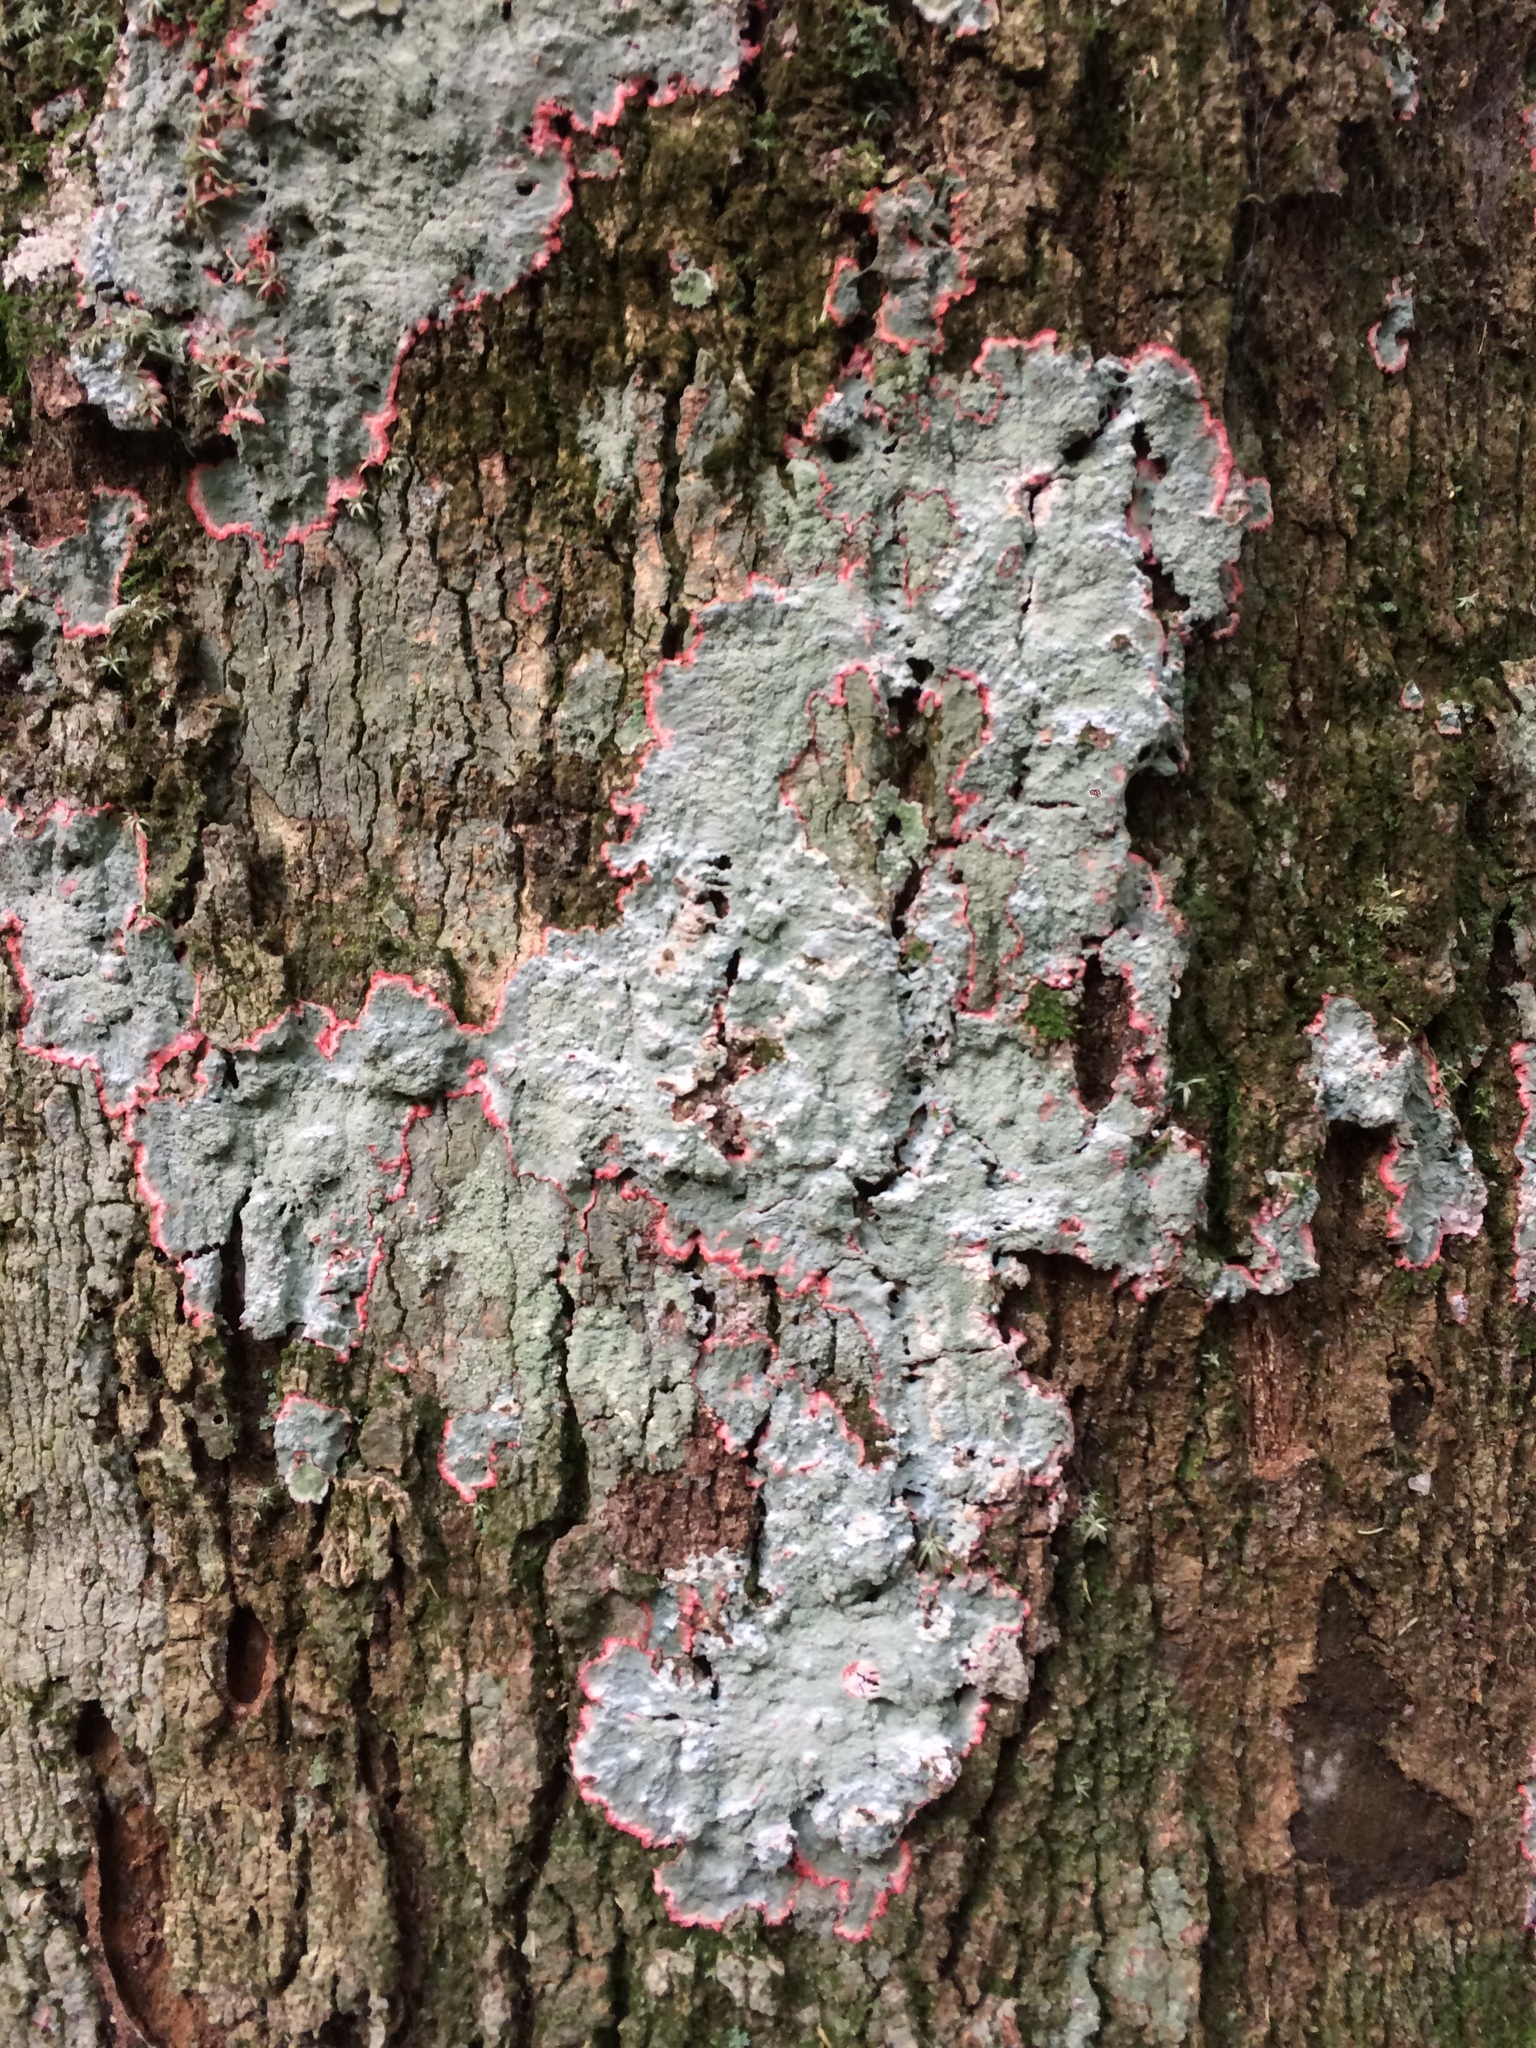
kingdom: Fungi
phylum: Ascomycota
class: Arthoniomycetes
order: Arthoniales
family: Arthoniaceae
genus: Herpothallon
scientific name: Herpothallon rubrocinctum
